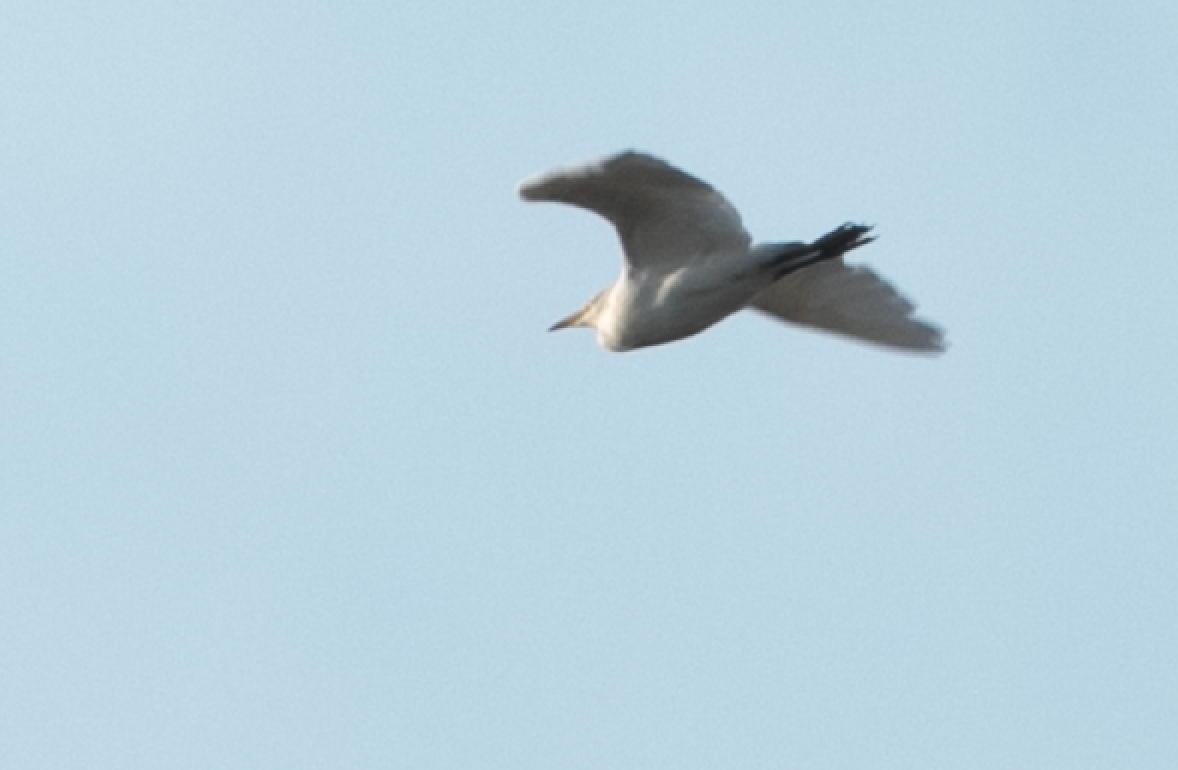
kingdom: Animalia
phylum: Chordata
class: Aves
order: Pelecaniformes
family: Ardeidae
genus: Bubulcus
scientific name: Bubulcus ibis
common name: Cattle egret
